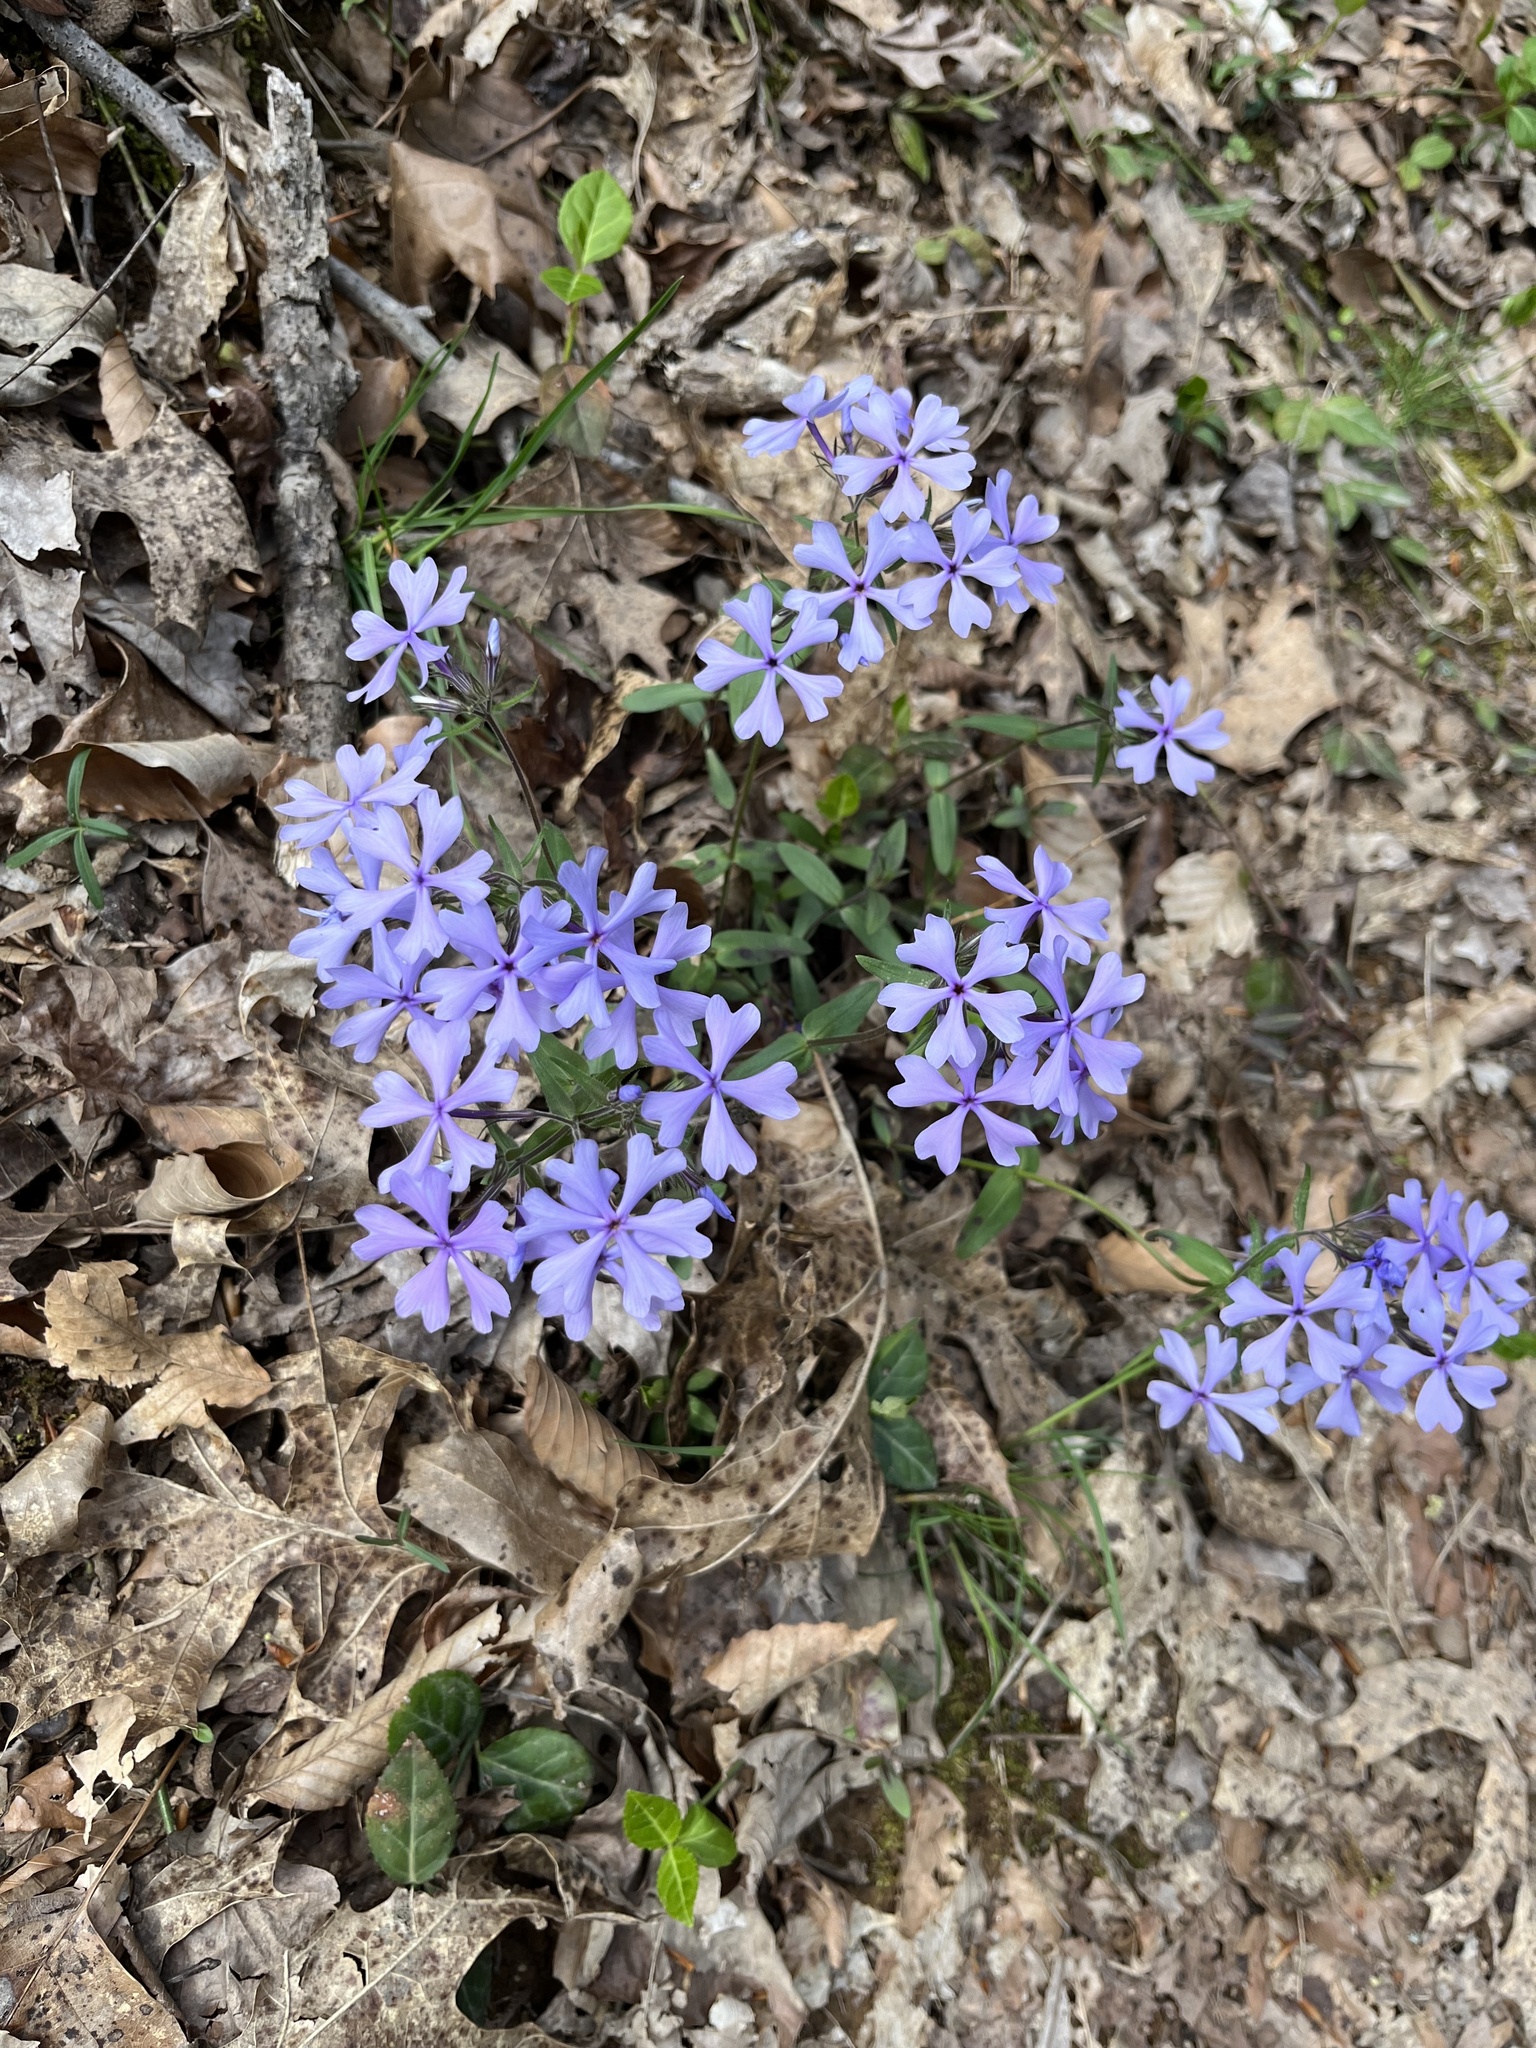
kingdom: Plantae
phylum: Tracheophyta
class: Magnoliopsida
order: Ericales
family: Polemoniaceae
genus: Phlox
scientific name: Phlox divaricata
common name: Blue phlox
